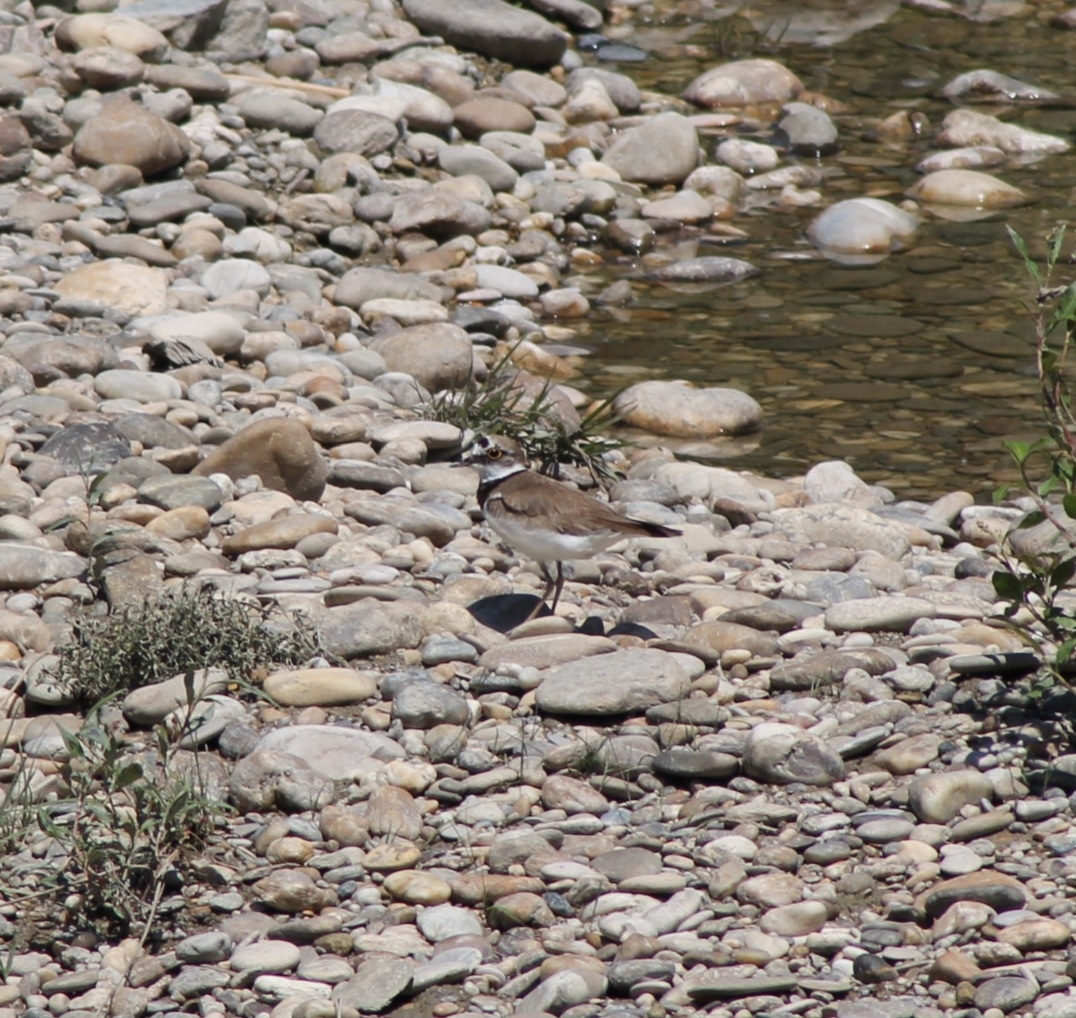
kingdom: Animalia
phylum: Chordata
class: Aves
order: Charadriiformes
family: Charadriidae
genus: Charadrius
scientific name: Charadrius dubius
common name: Little ringed plover
